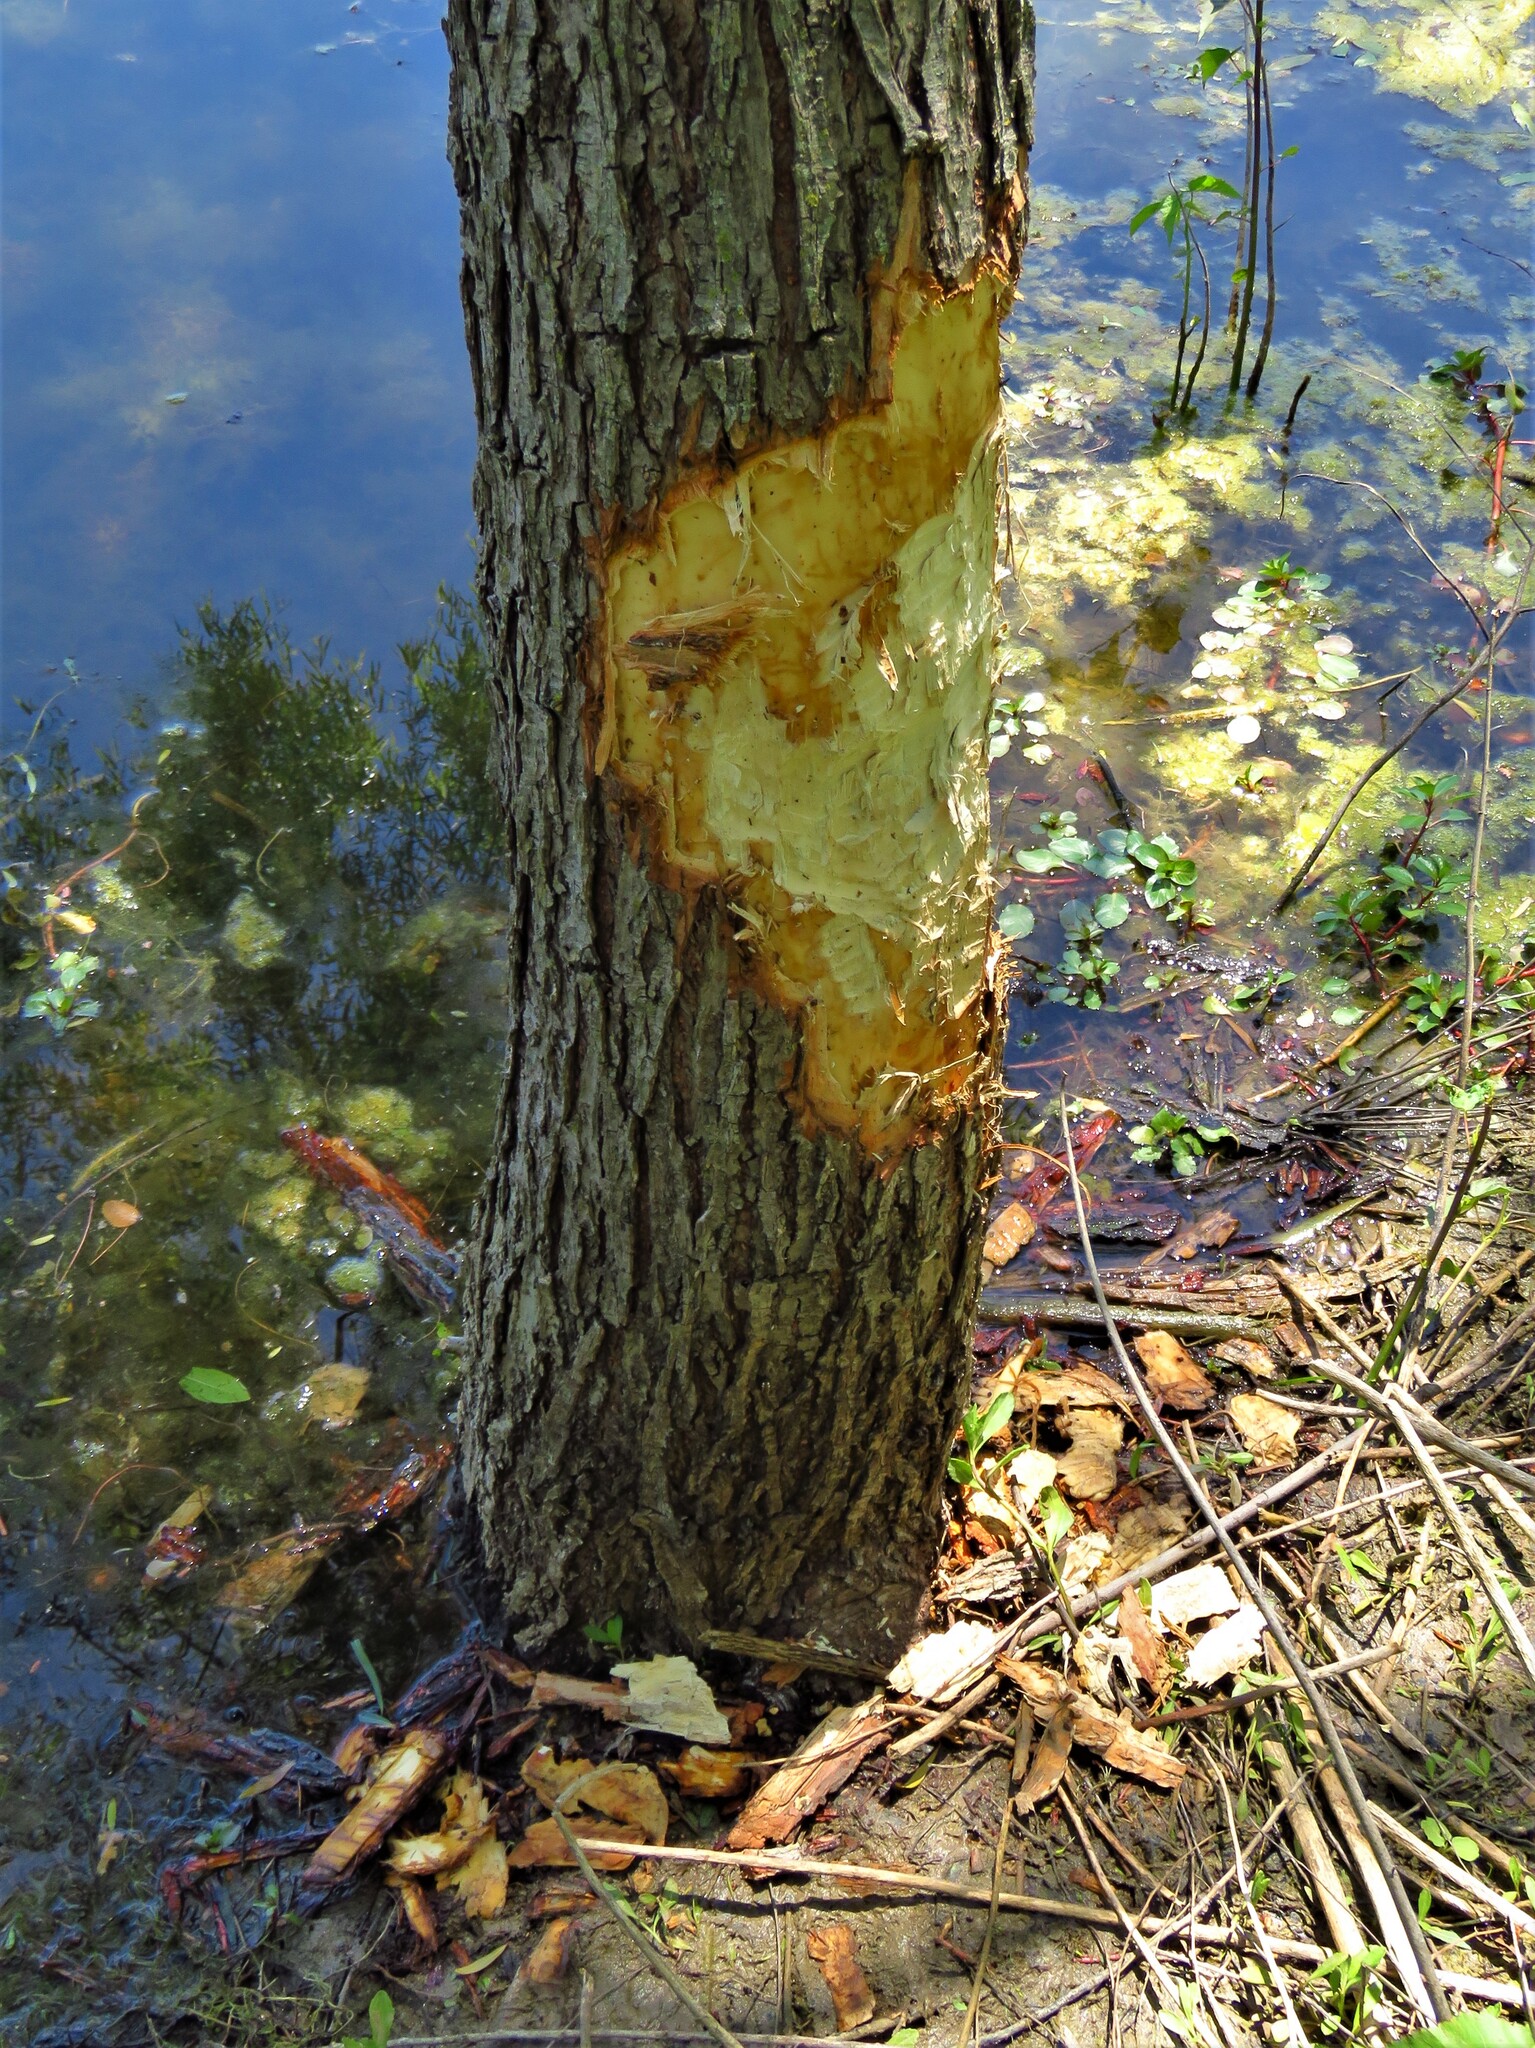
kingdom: Animalia
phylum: Chordata
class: Mammalia
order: Rodentia
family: Castoridae
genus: Castor
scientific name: Castor canadensis
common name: American beaver
